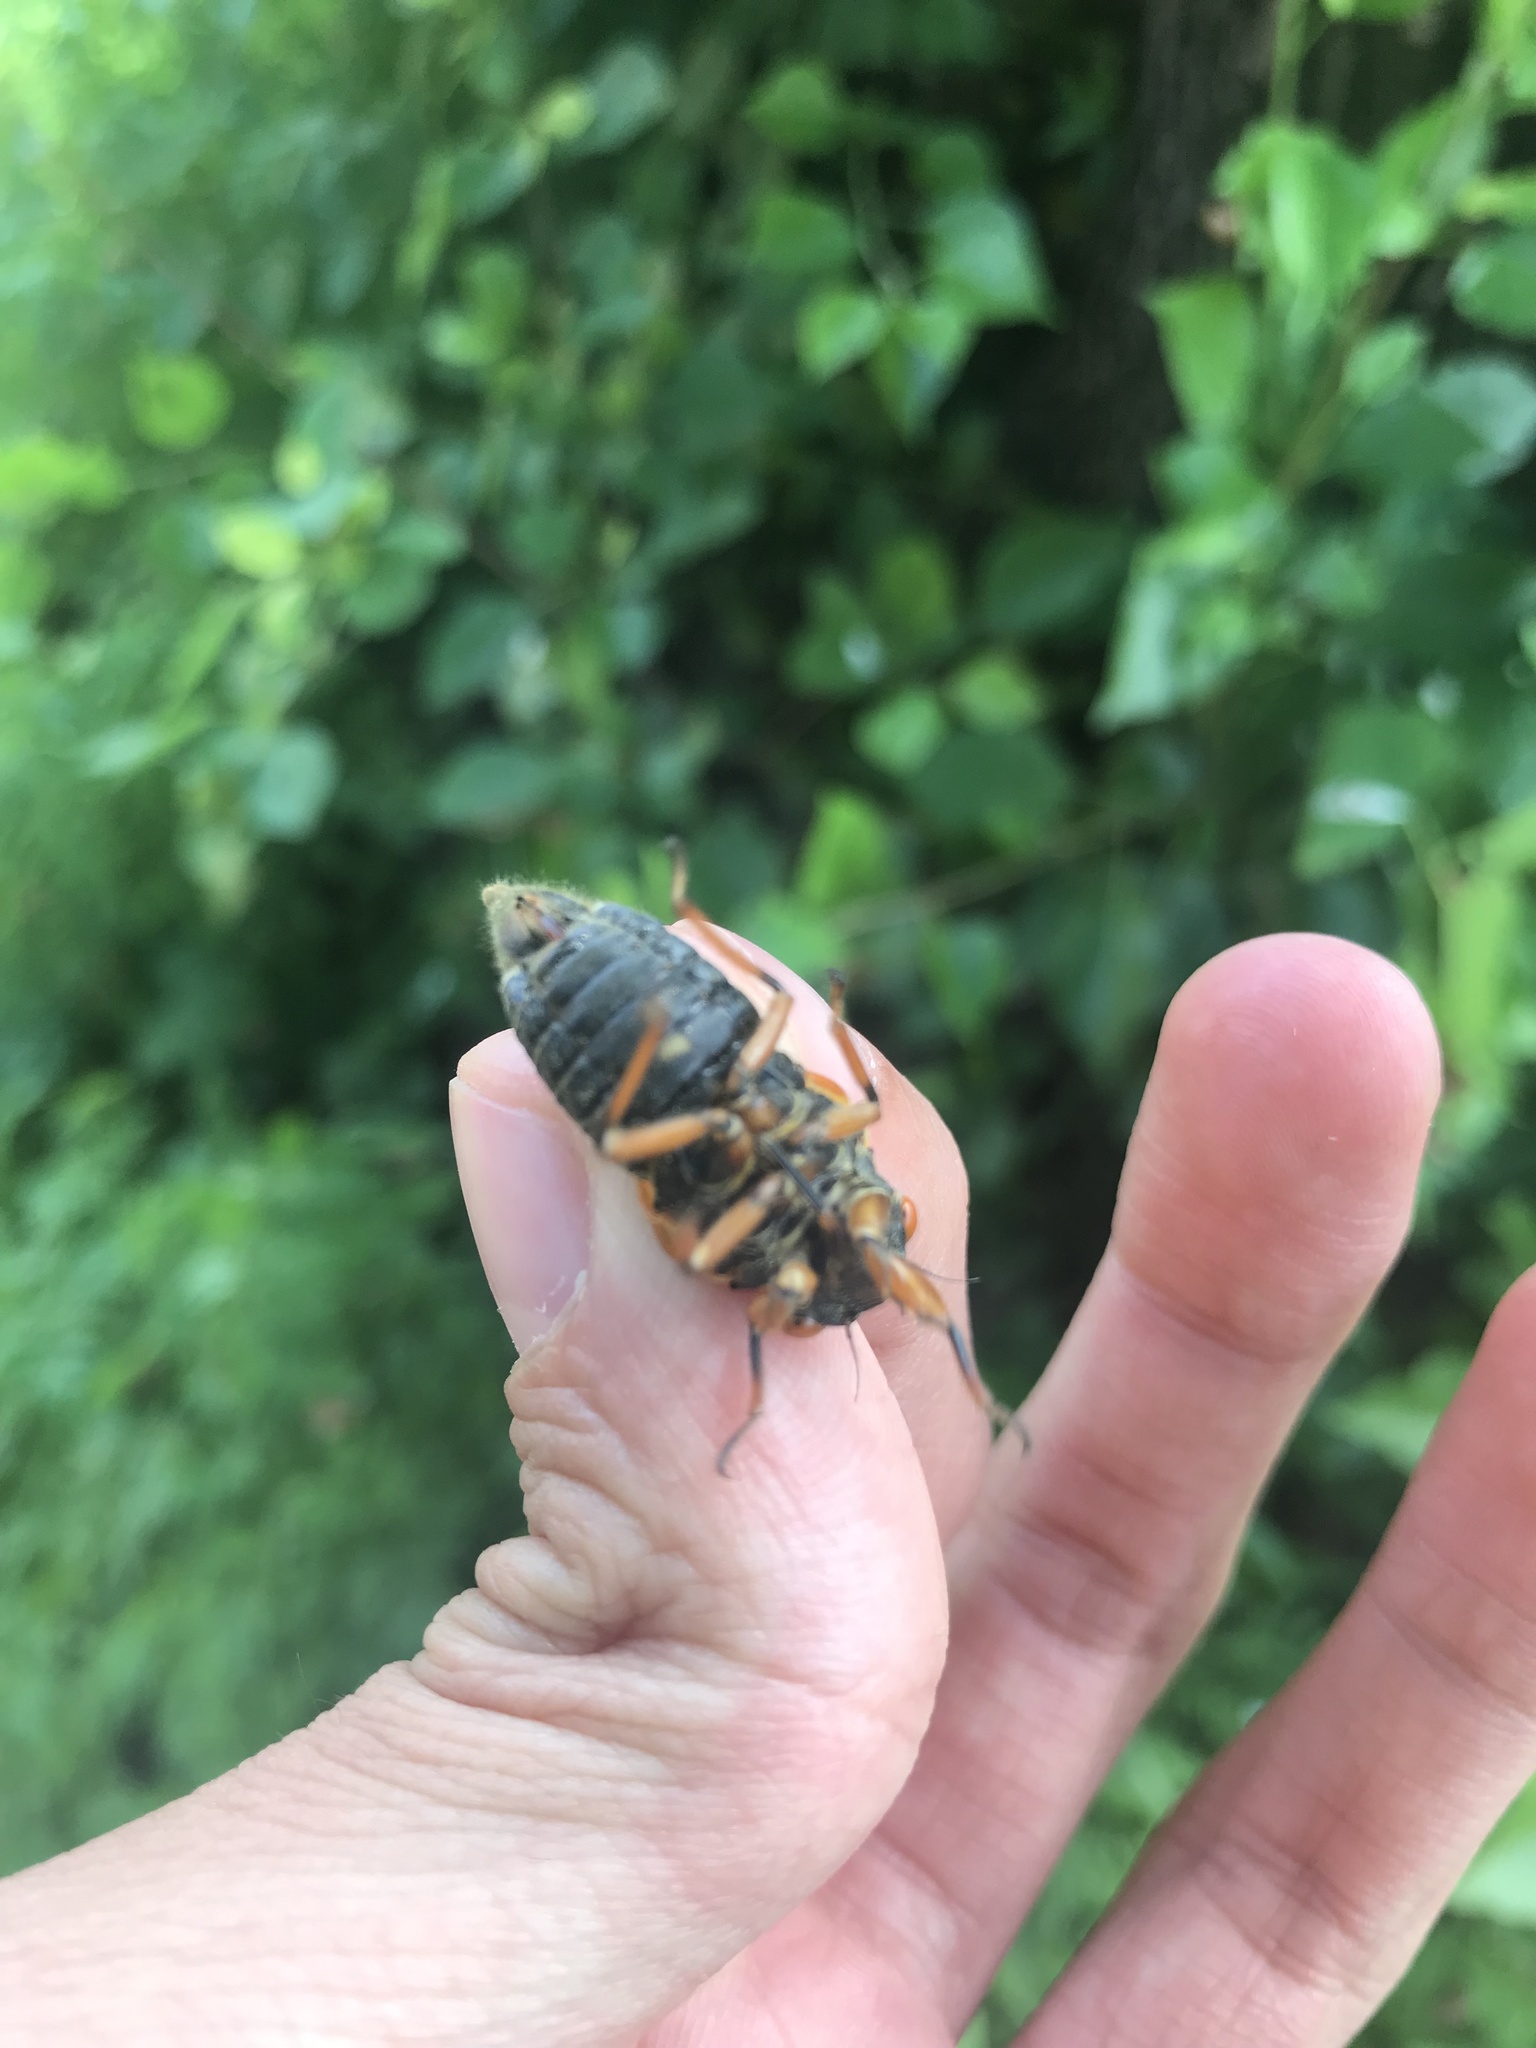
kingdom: Animalia
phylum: Arthropoda
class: Insecta
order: Hemiptera
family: Cicadidae
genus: Magicicada
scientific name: Magicicada cassini
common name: Cassin's 17-year cicada
